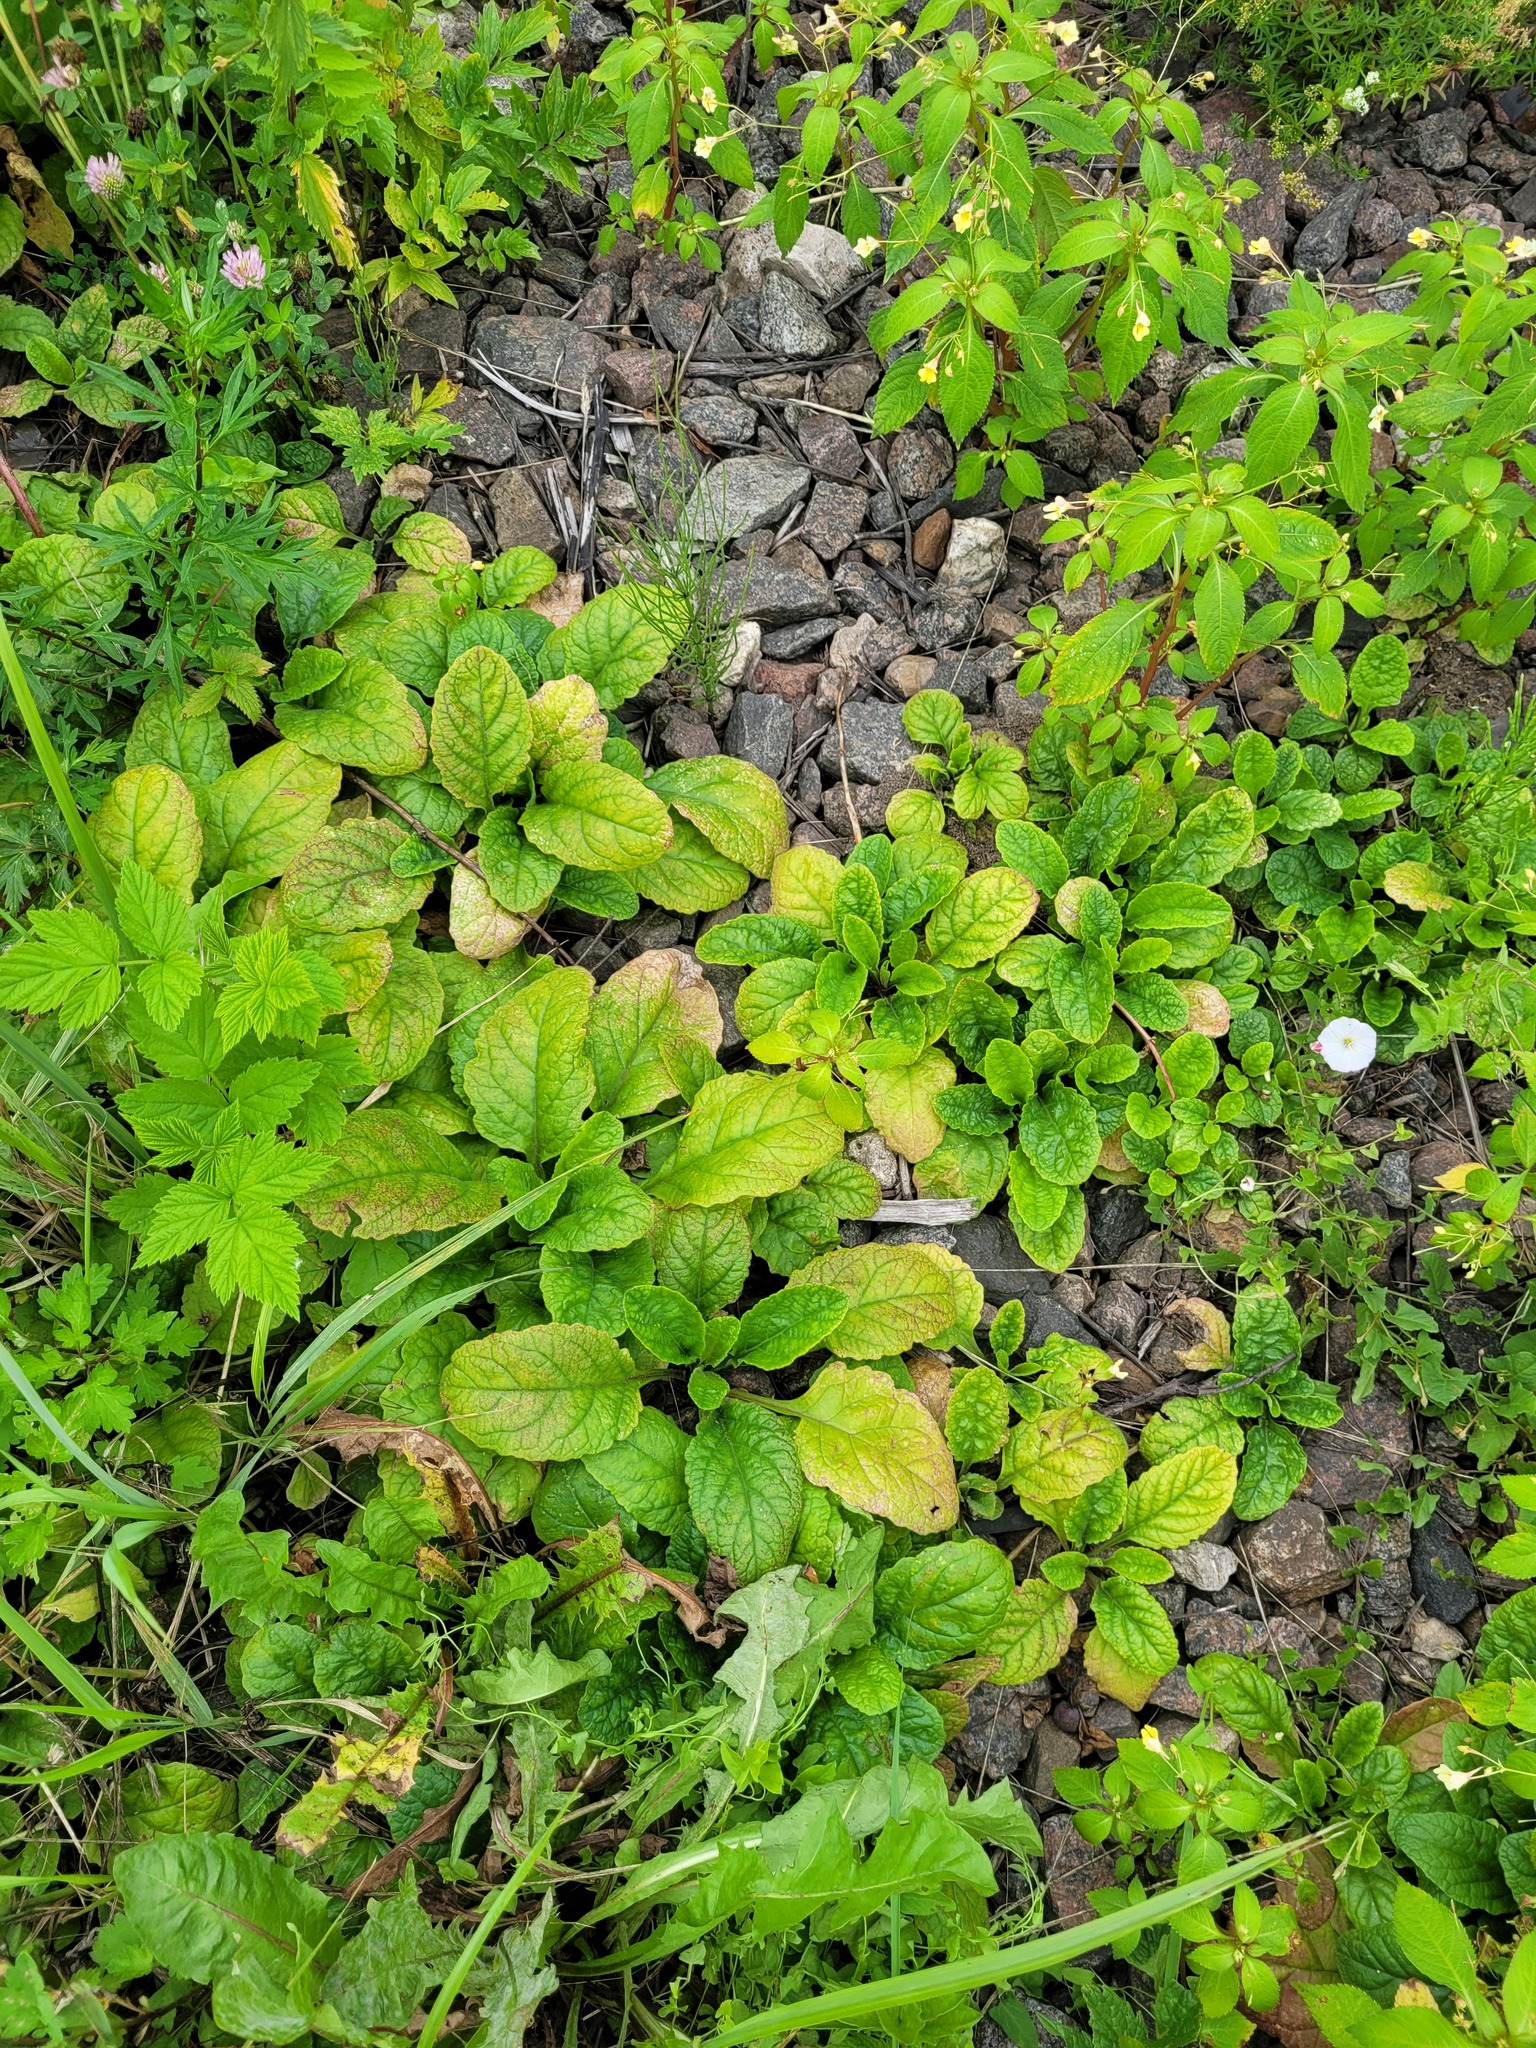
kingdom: Plantae
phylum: Tracheophyta
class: Magnoliopsida
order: Lamiales
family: Lamiaceae
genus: Ajuga
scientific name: Ajuga reptans
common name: Bugle
